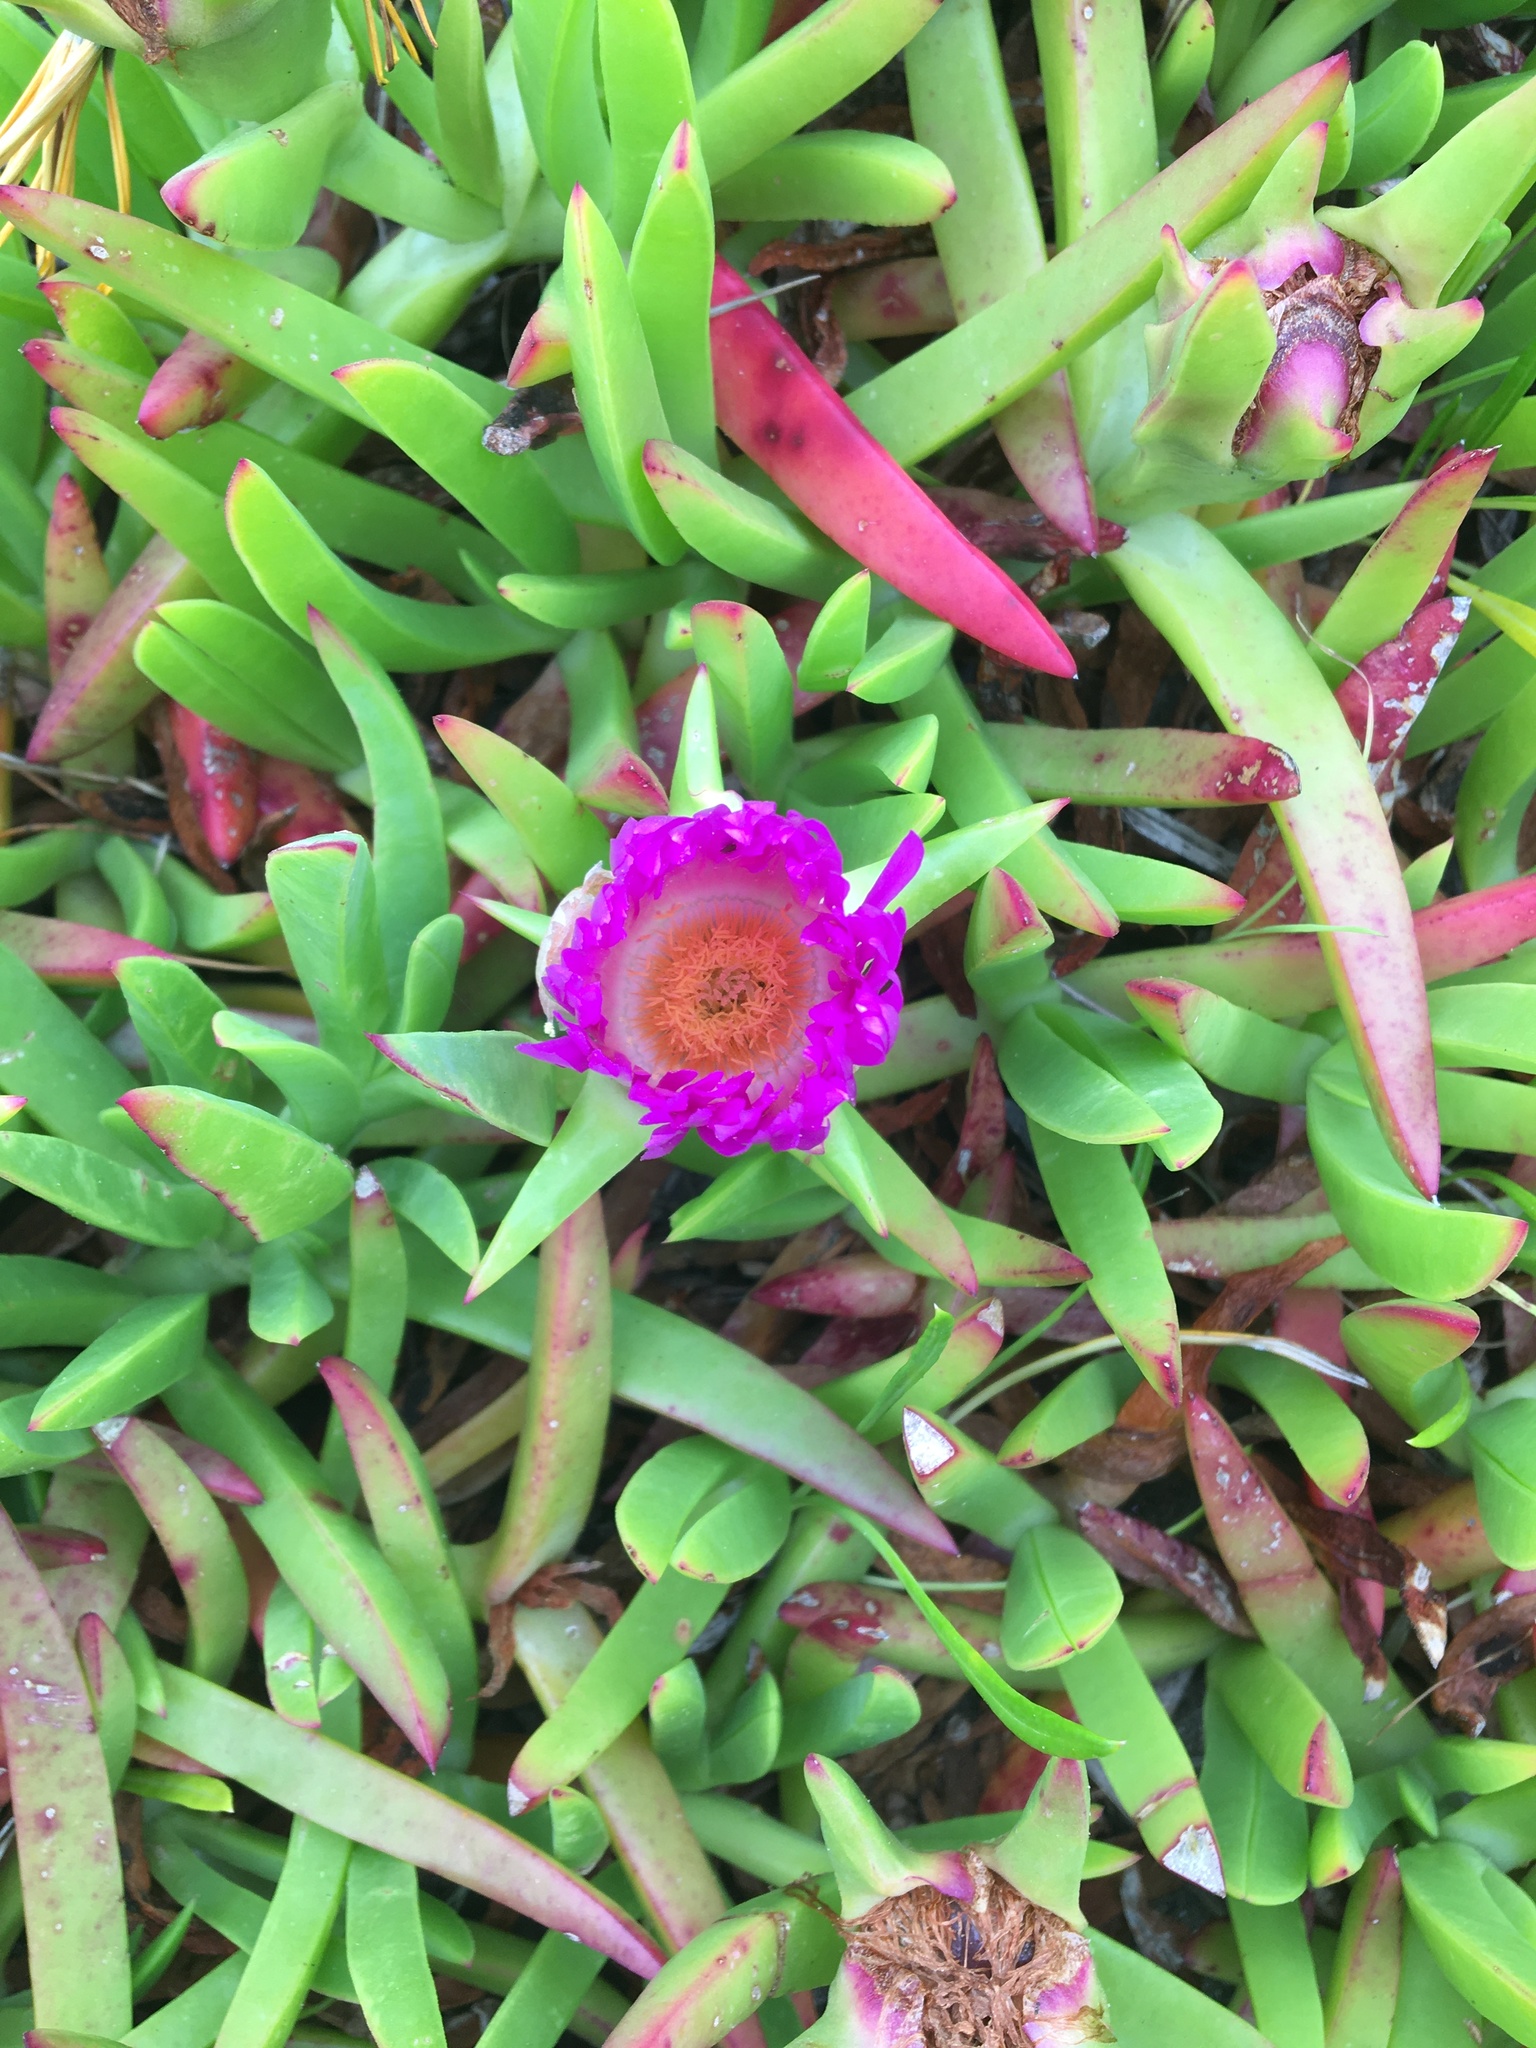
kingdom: Plantae
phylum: Tracheophyta
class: Magnoliopsida
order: Caryophyllales
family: Aizoaceae
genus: Carpobrotus
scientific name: Carpobrotus chilensis
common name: Sea fig
